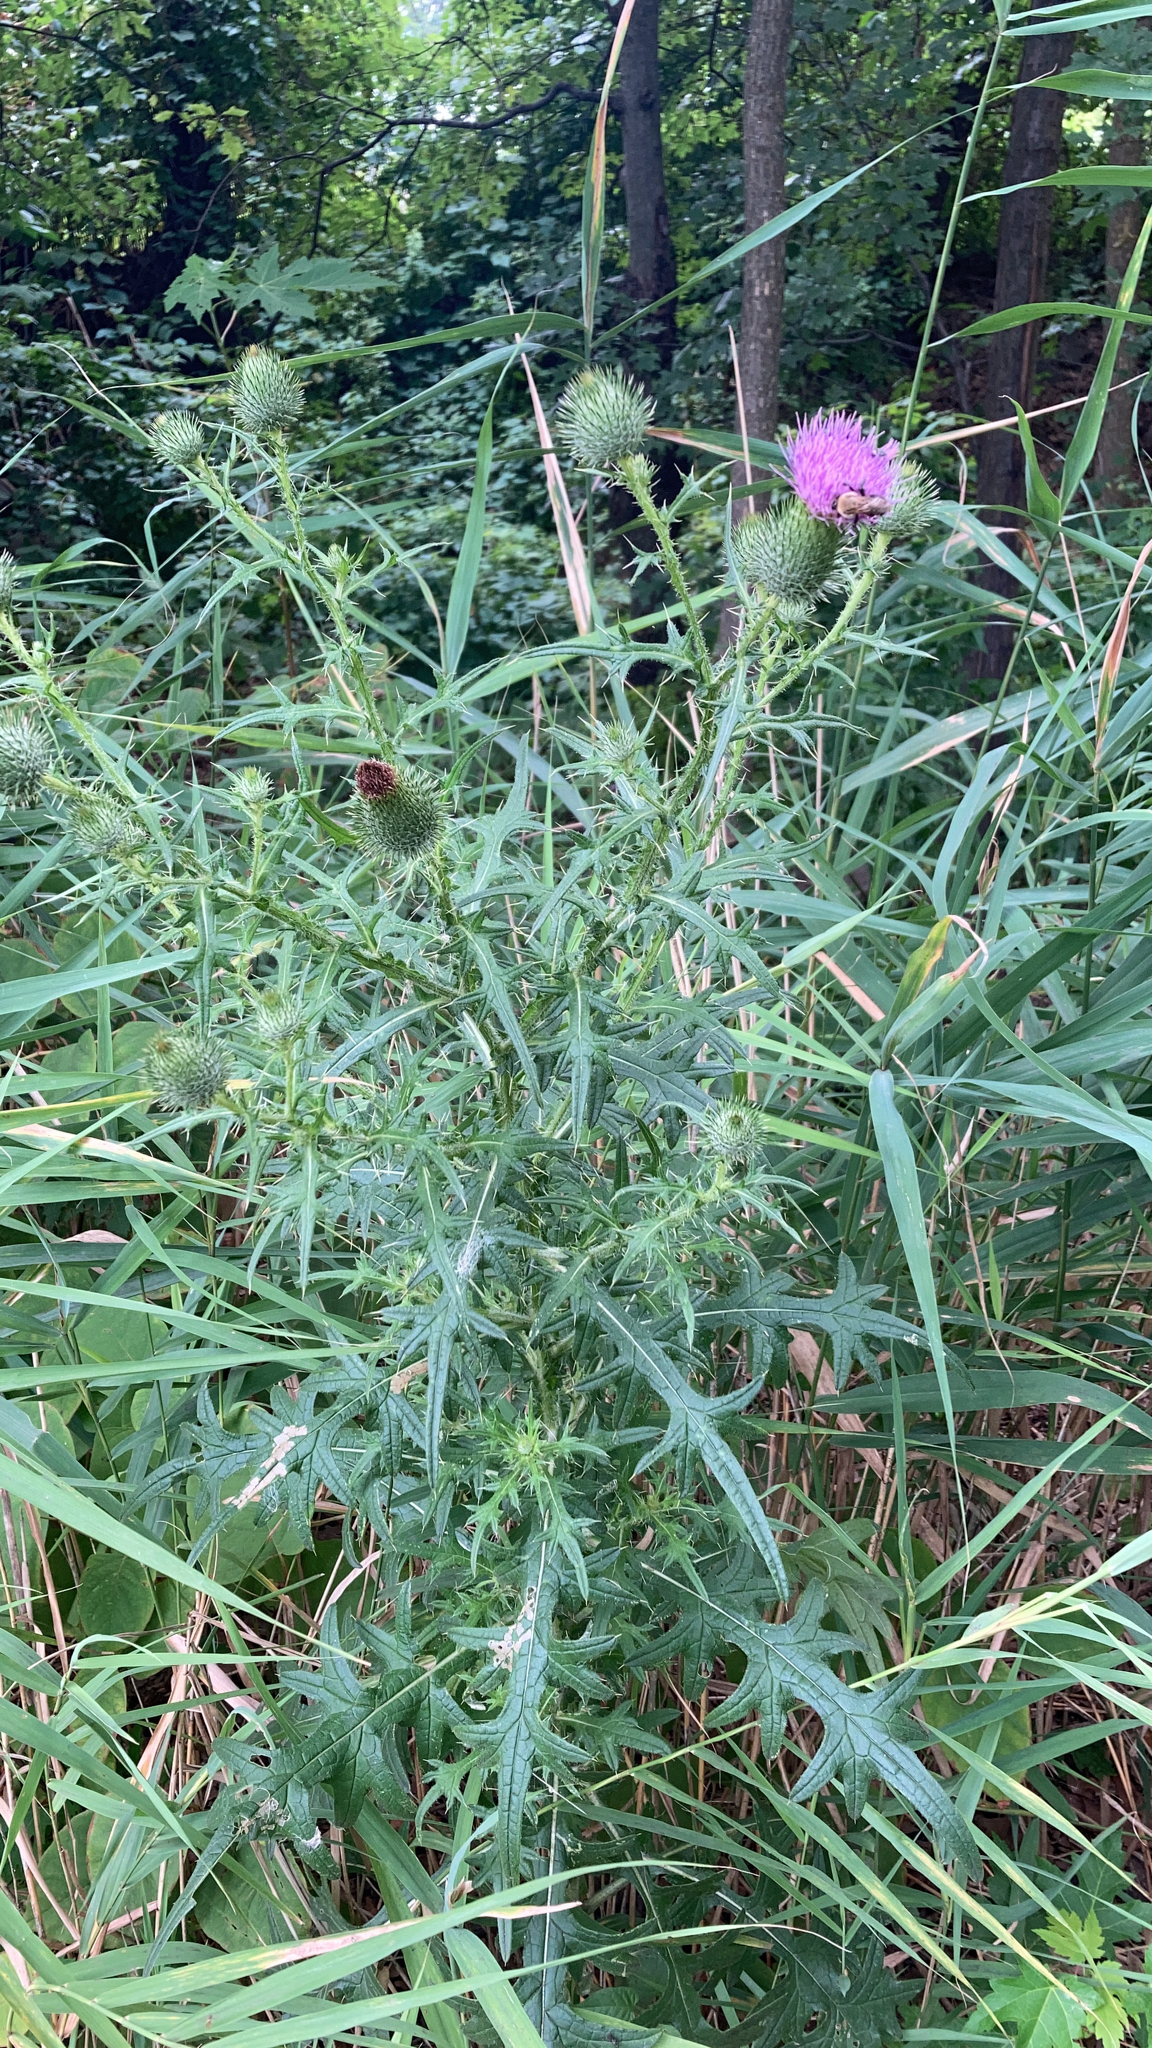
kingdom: Plantae
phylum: Tracheophyta
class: Magnoliopsida
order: Asterales
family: Asteraceae
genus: Cirsium
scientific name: Cirsium vulgare
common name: Bull thistle
